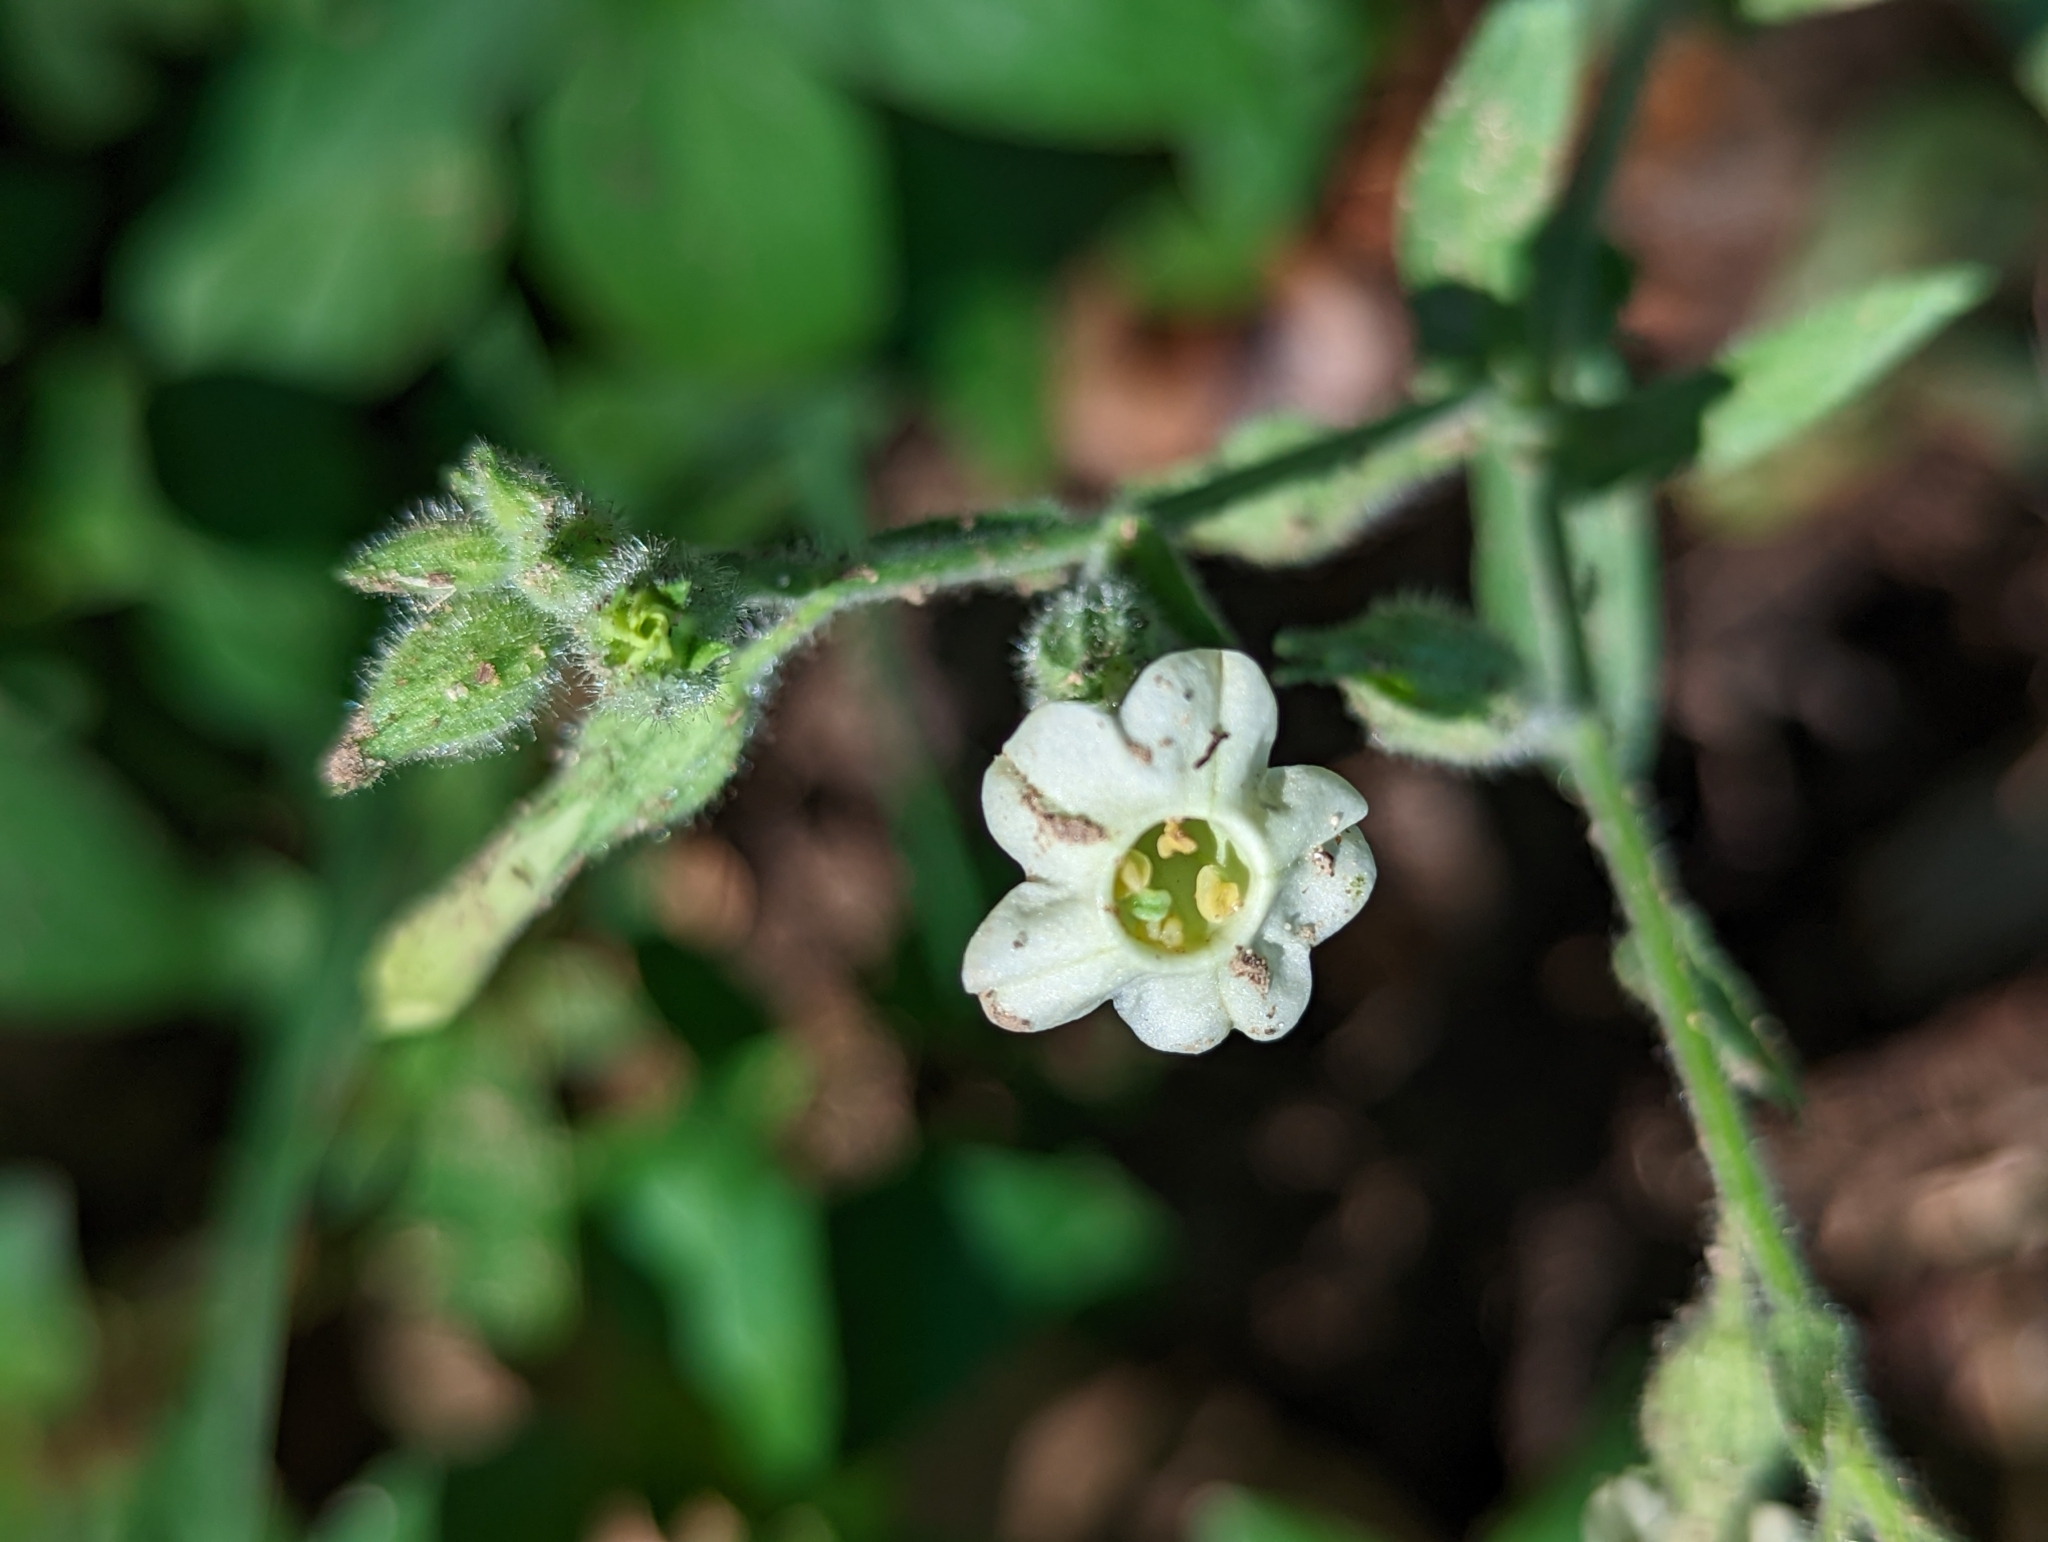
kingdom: Plantae
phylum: Tracheophyta
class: Magnoliopsida
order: Solanales
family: Solanaceae
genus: Nicotiana
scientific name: Nicotiana obtusifolia
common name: Desert tobacco
